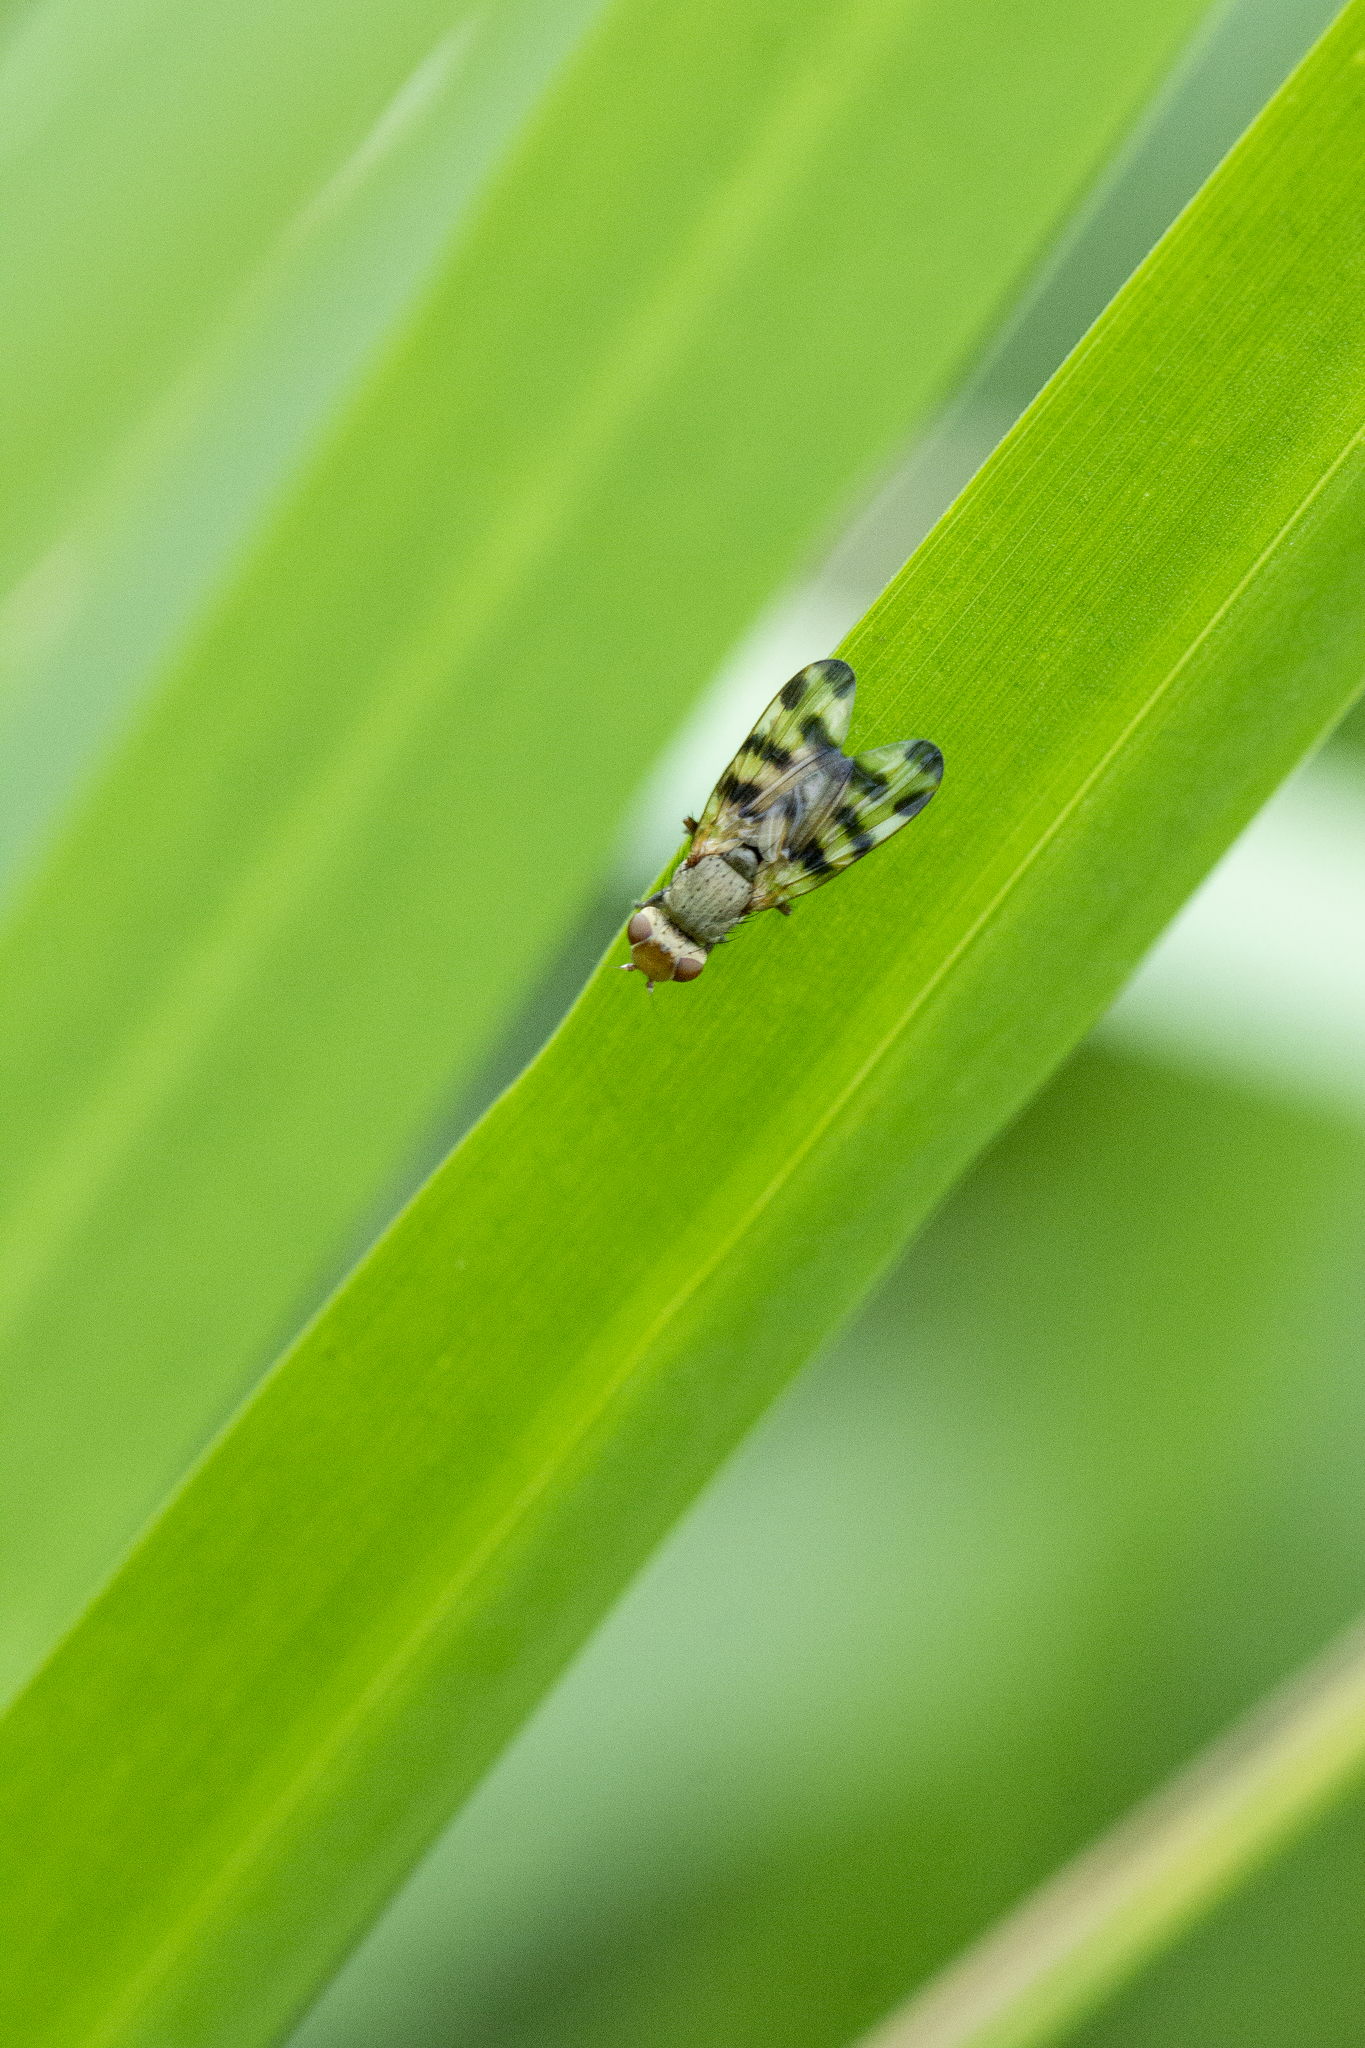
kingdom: Animalia
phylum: Arthropoda
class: Insecta
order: Diptera
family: Ulidiidae
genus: Melieria
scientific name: Melieria crassipennis
